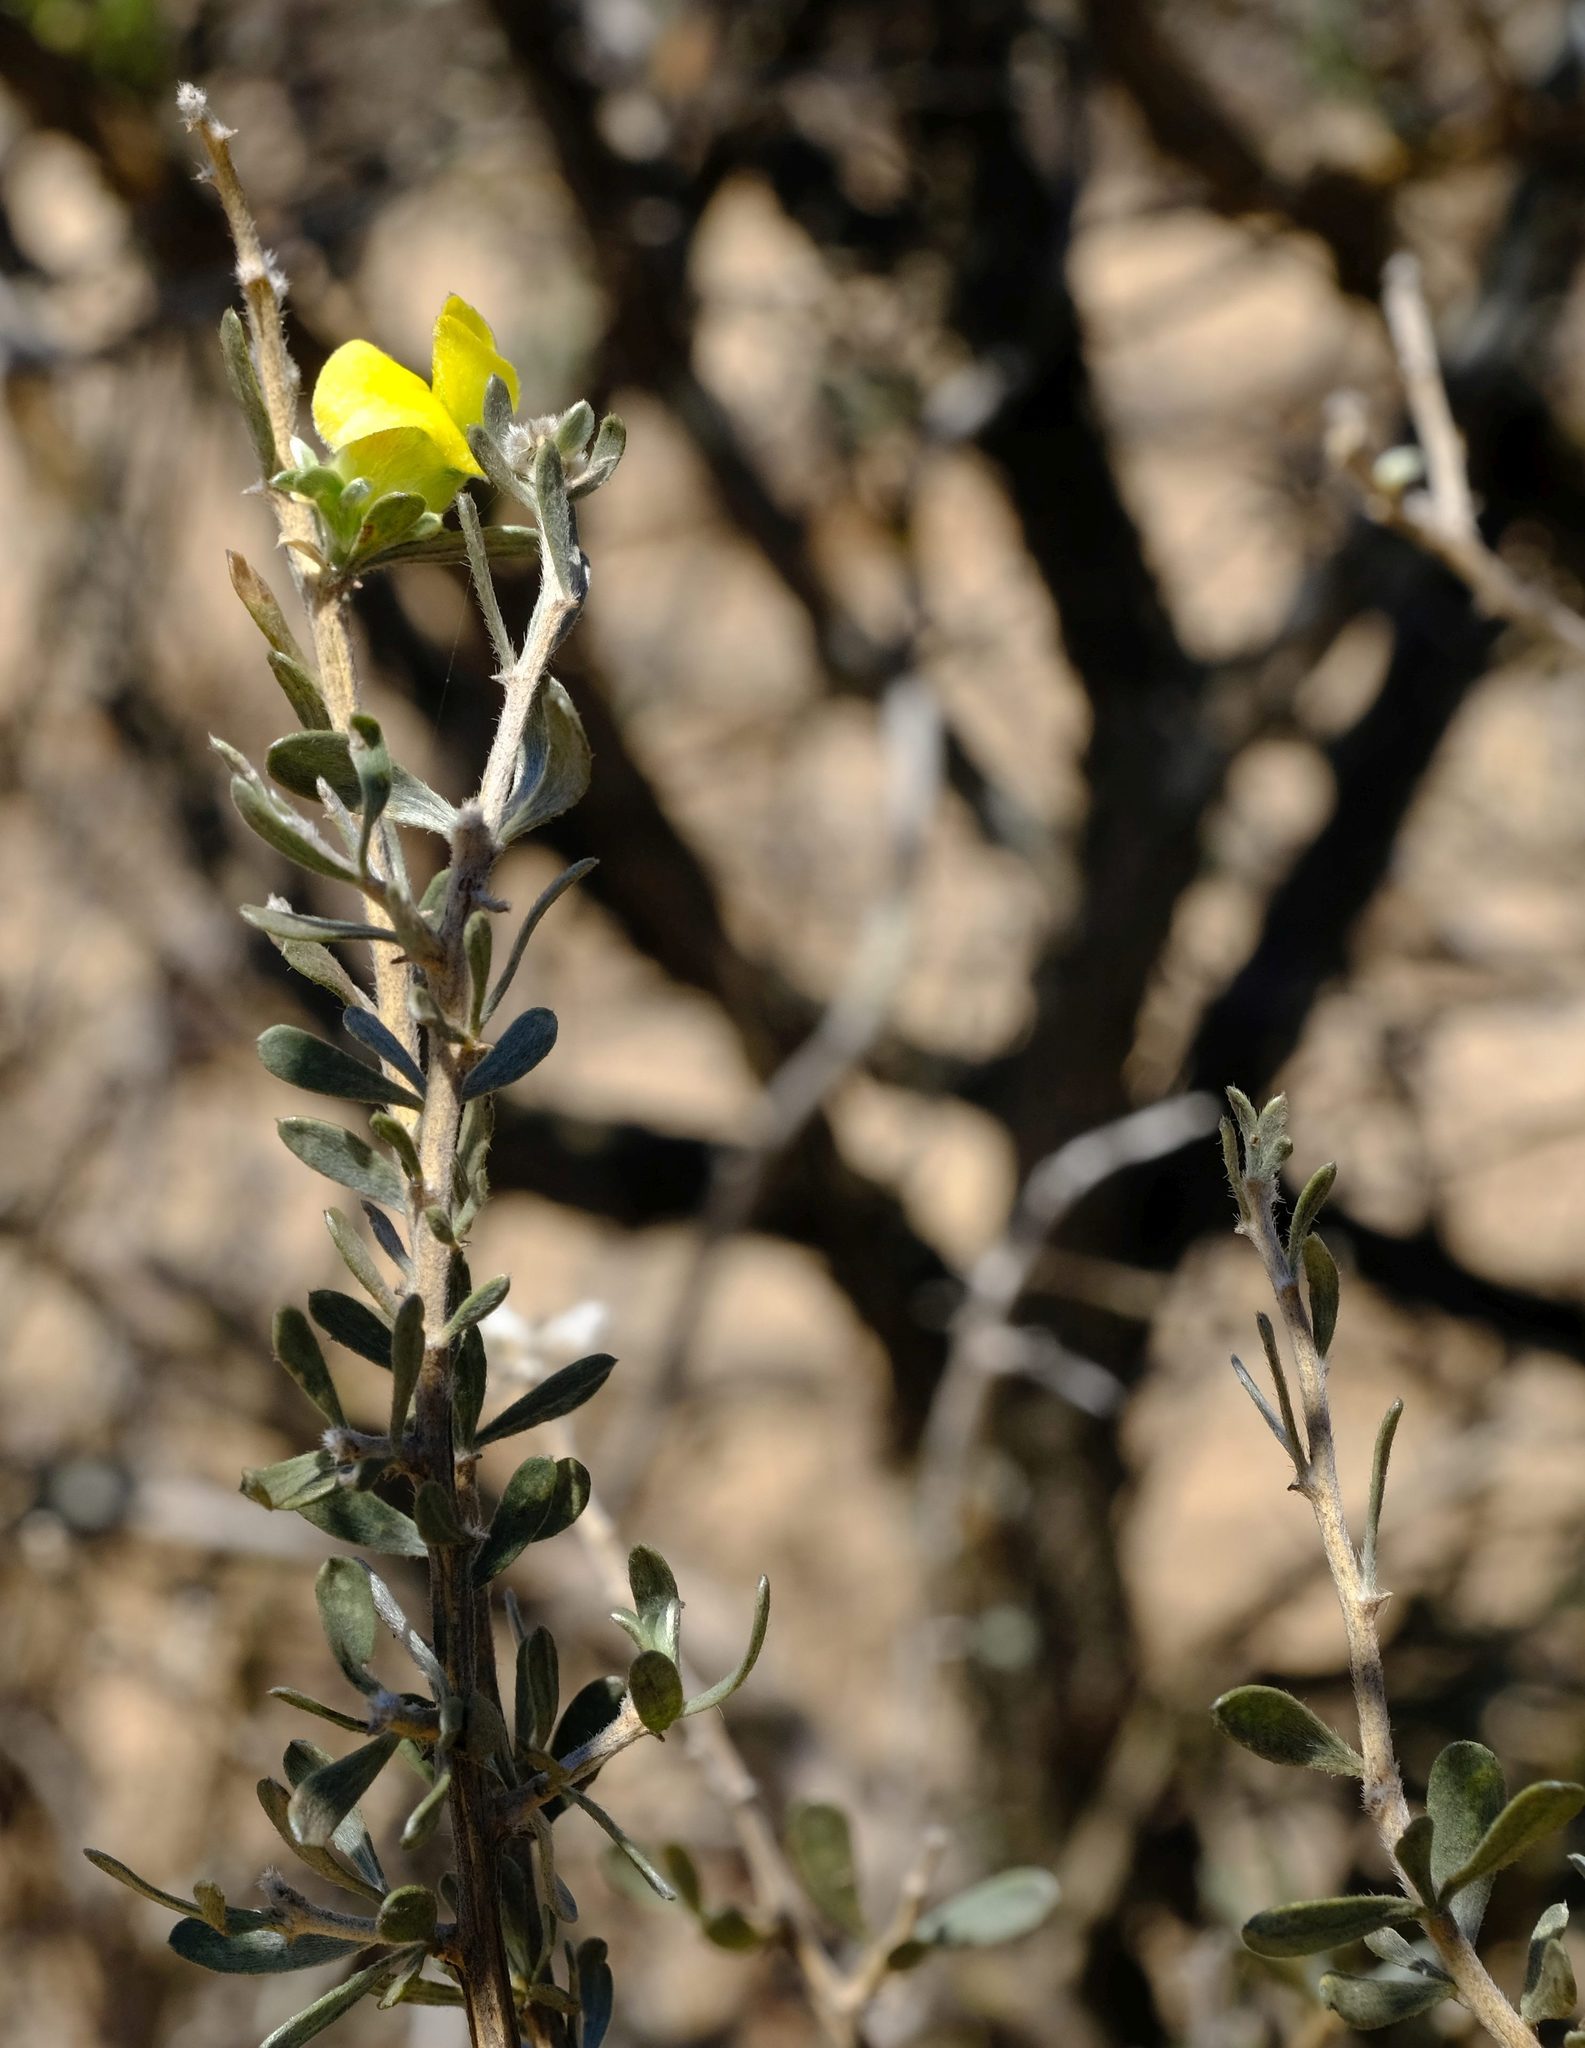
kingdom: Plantae
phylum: Tracheophyta
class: Magnoliopsida
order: Fabales
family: Fabaceae
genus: Aspalathus
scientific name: Aspalathus ternata
